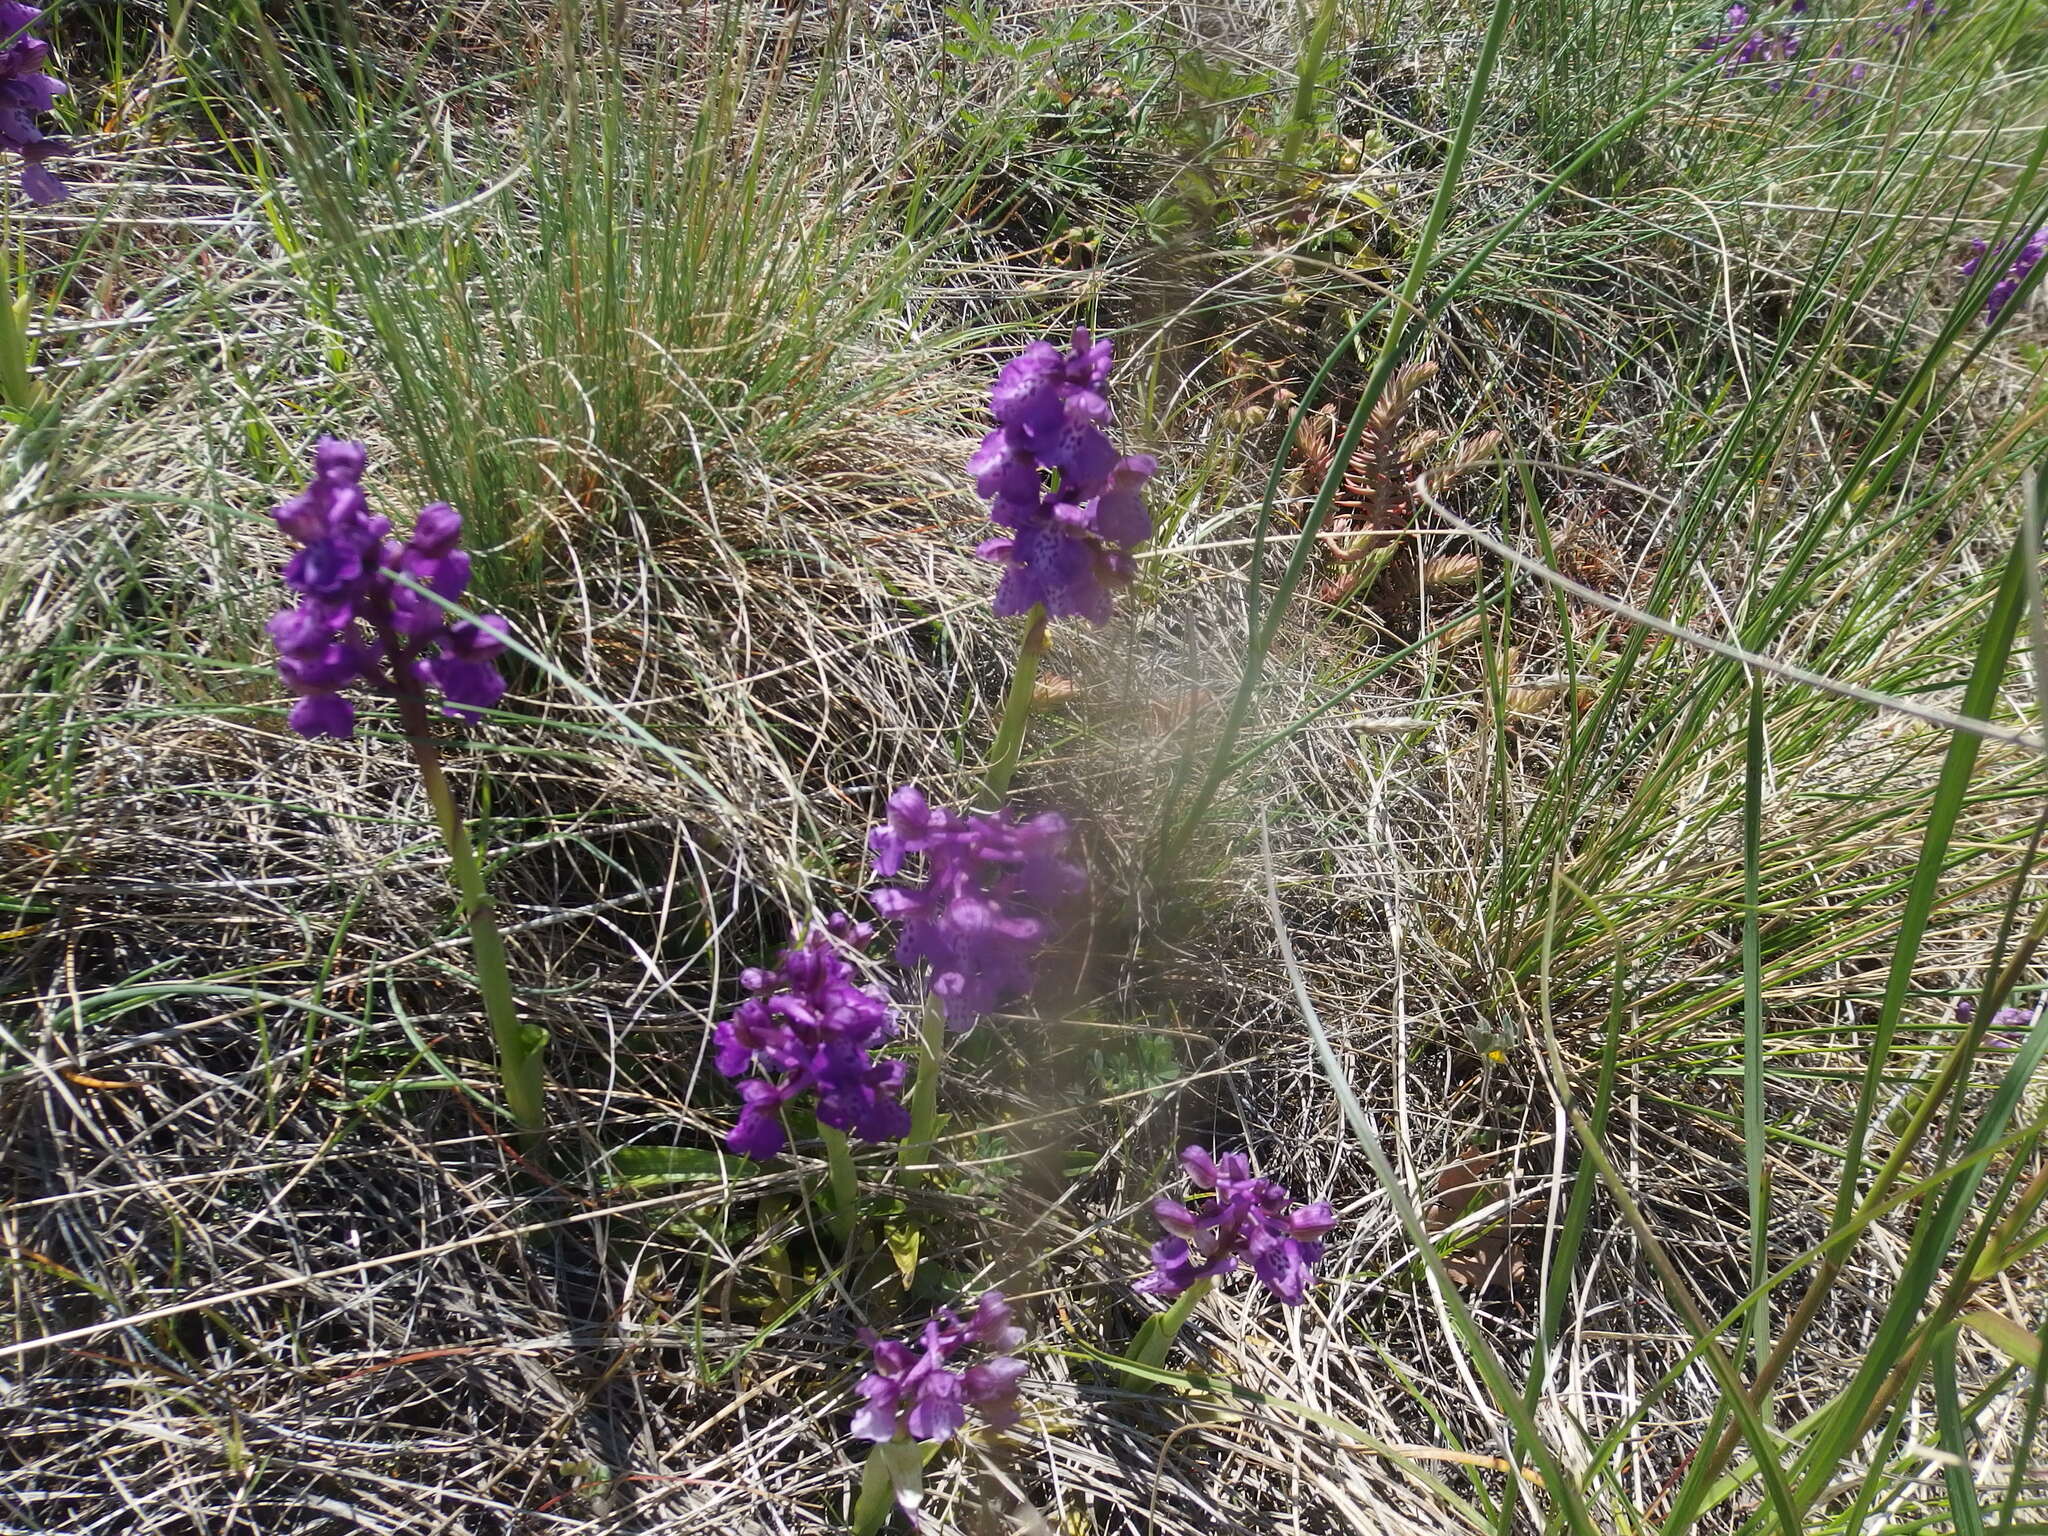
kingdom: Plantae
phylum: Tracheophyta
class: Liliopsida
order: Asparagales
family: Orchidaceae
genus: Anacamptis
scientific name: Anacamptis morio
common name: Green-winged orchid
